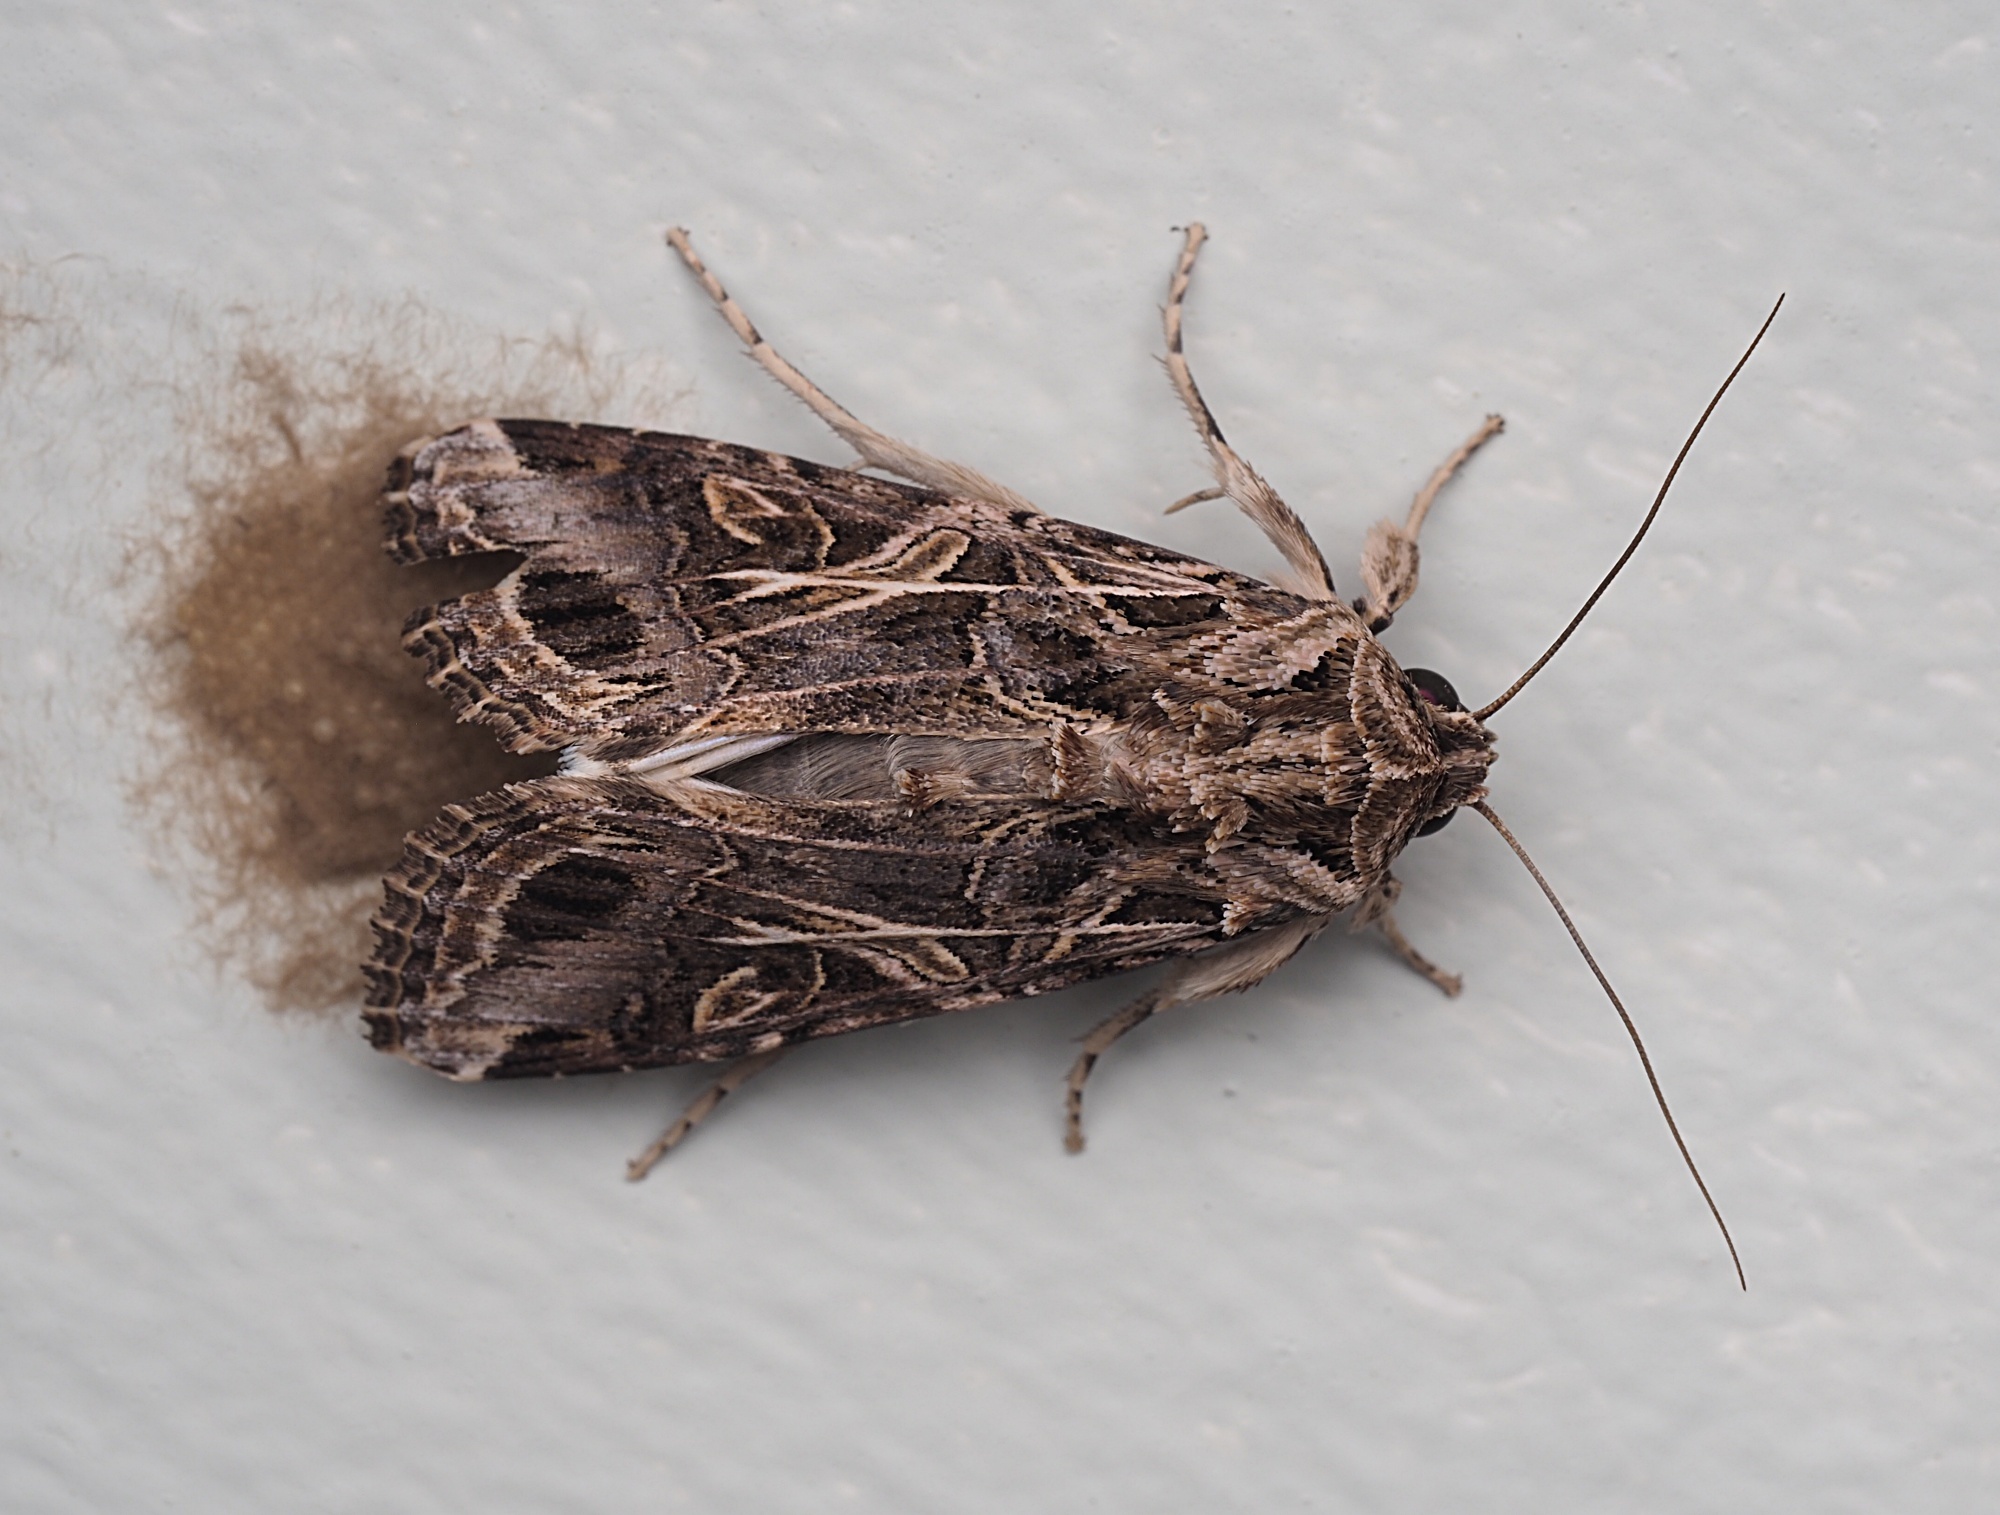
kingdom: Animalia
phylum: Arthropoda
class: Insecta
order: Lepidoptera
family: Noctuidae
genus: Spodoptera
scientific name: Spodoptera litura
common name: Asian cotton leafworm
